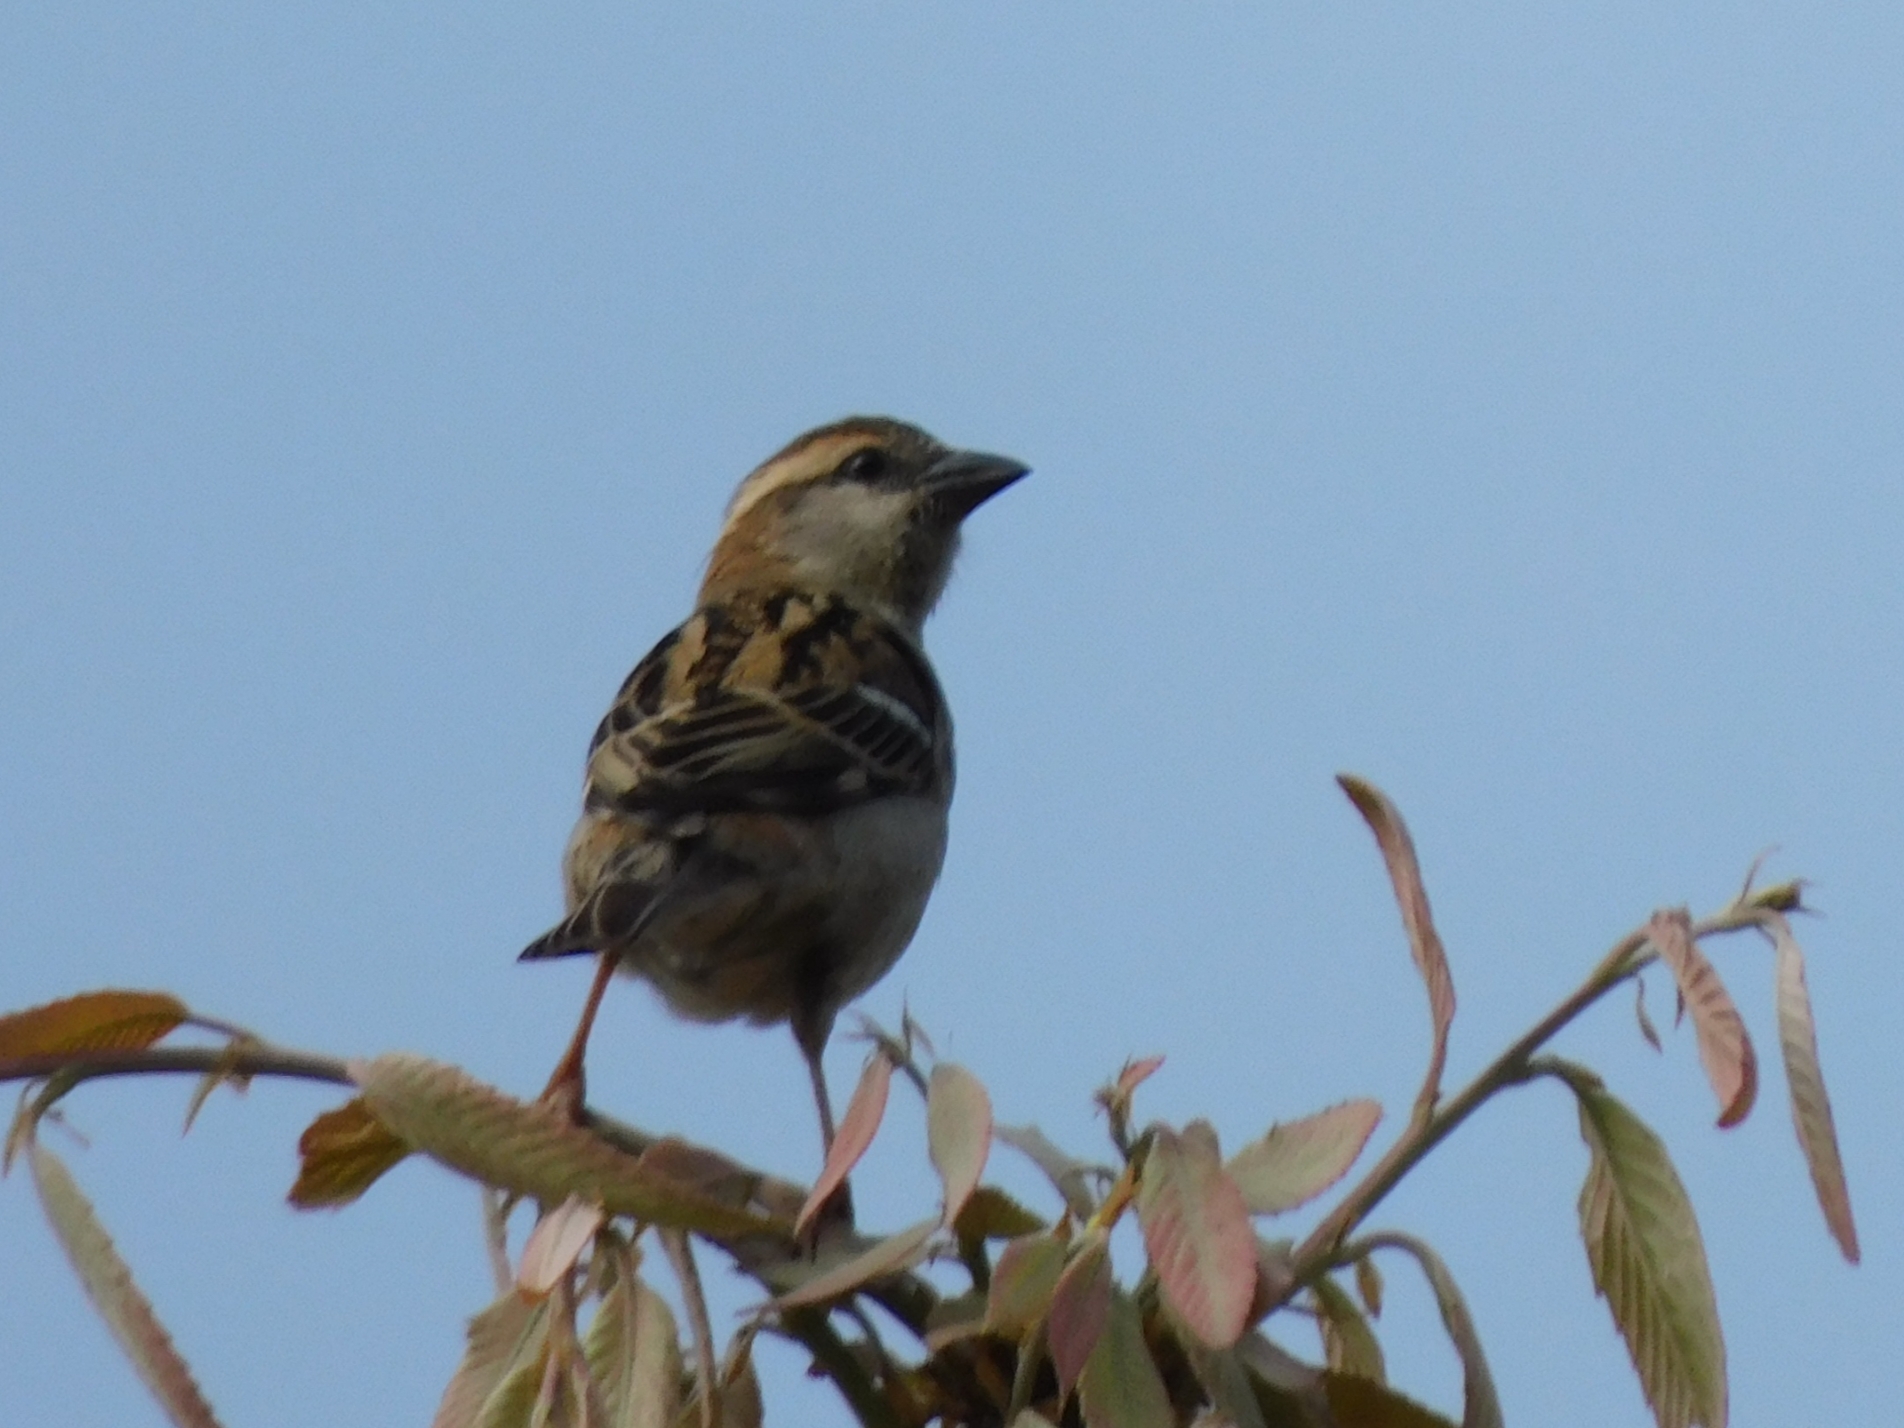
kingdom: Animalia
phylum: Chordata
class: Aves
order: Passeriformes
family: Passeridae
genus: Passer
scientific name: Passer cinnamomeus
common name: Russet sparrow
